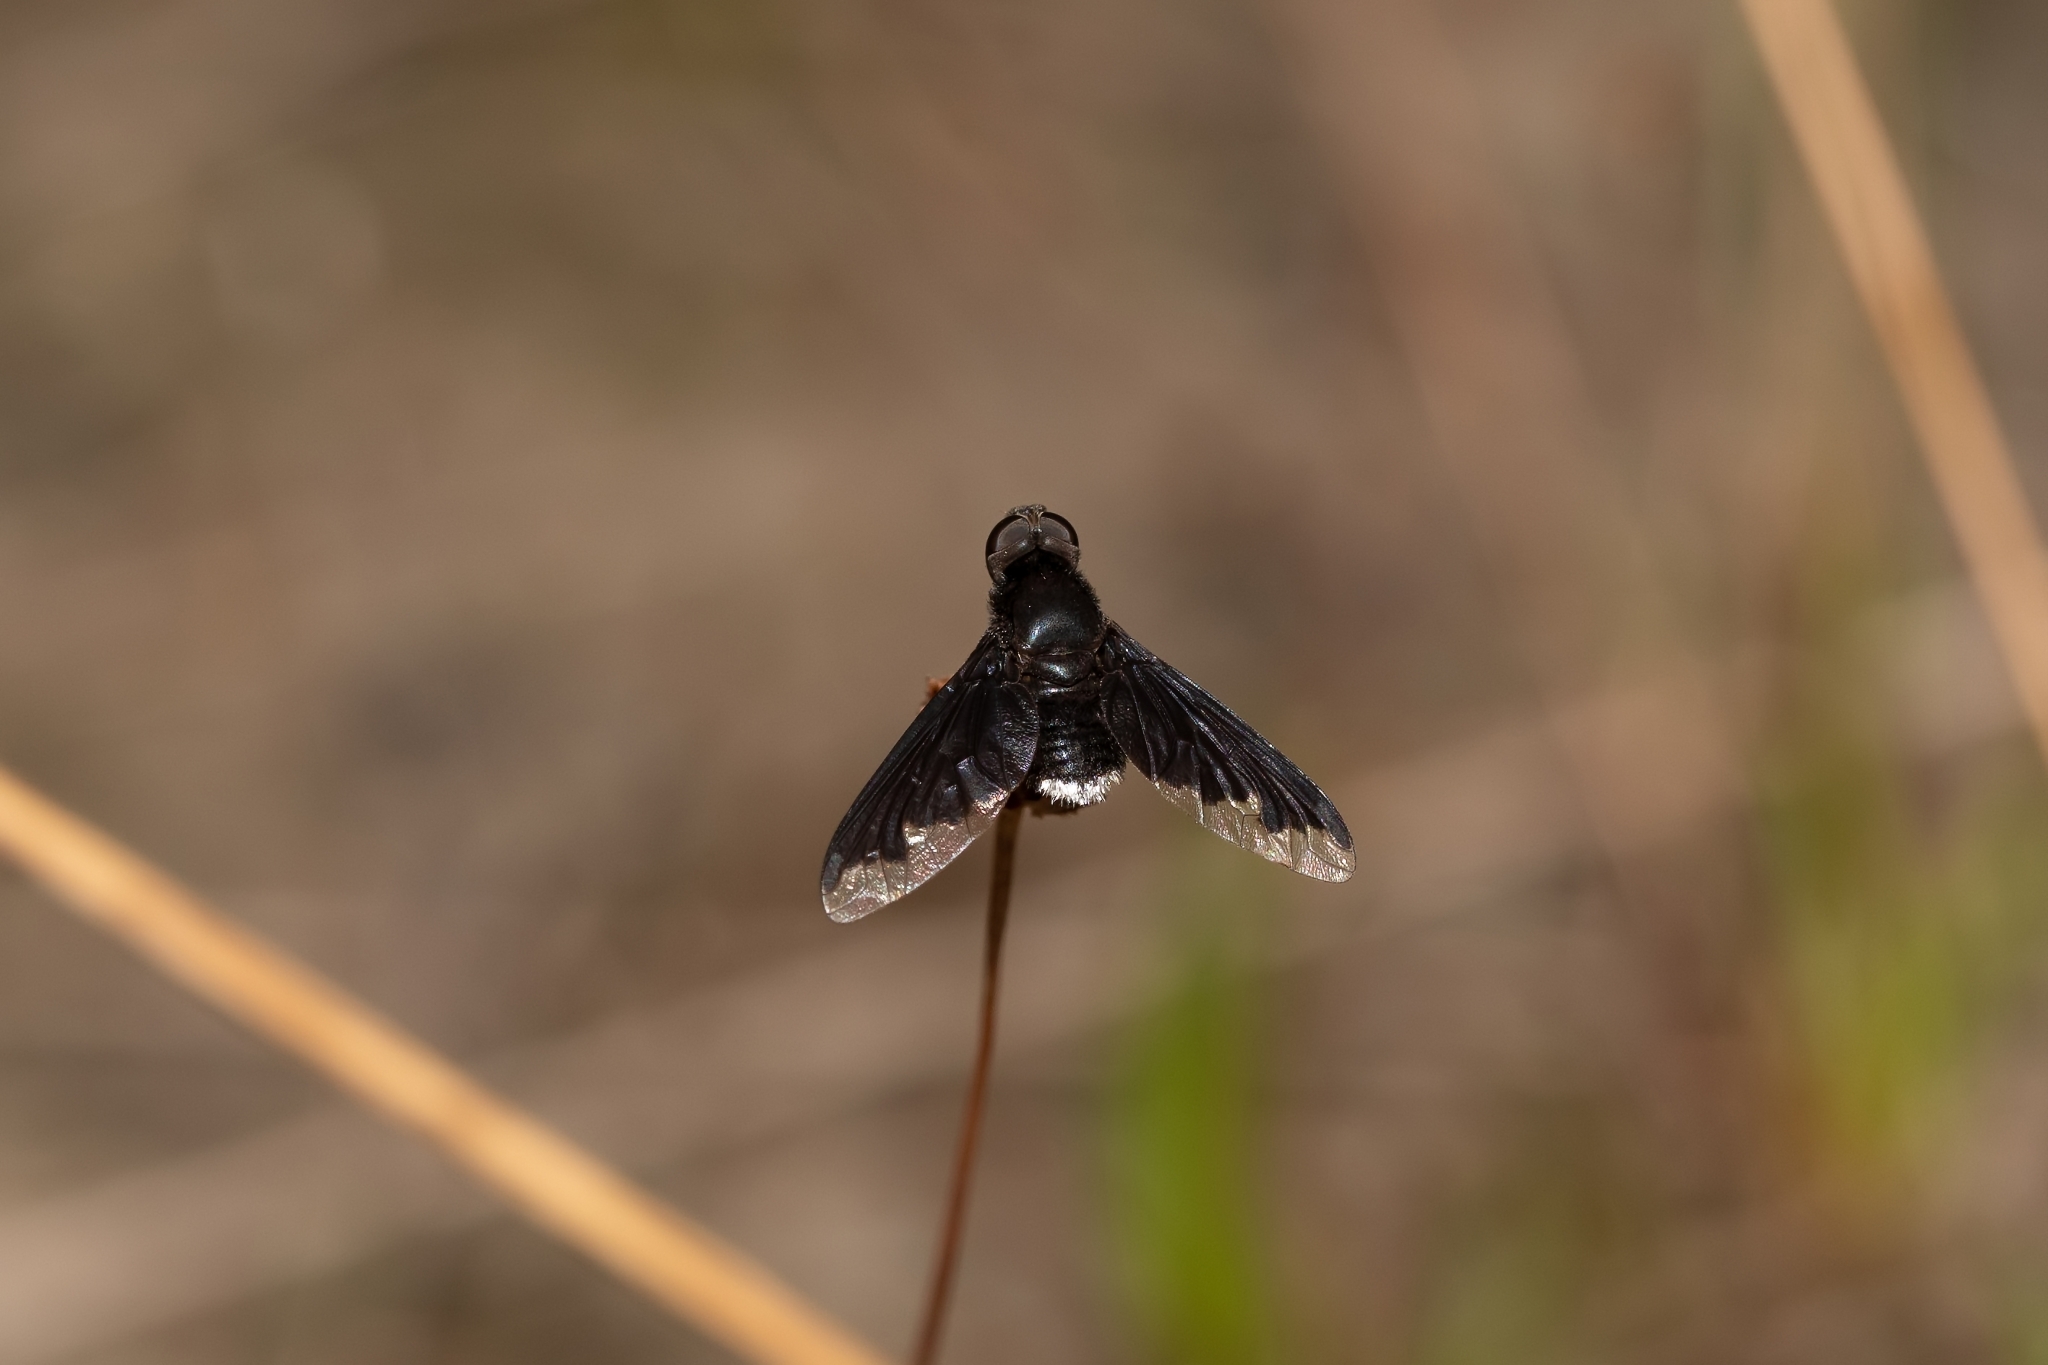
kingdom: Animalia
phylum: Arthropoda
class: Insecta
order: Diptera
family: Bombyliidae
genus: Anthrax
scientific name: Anthrax analis
